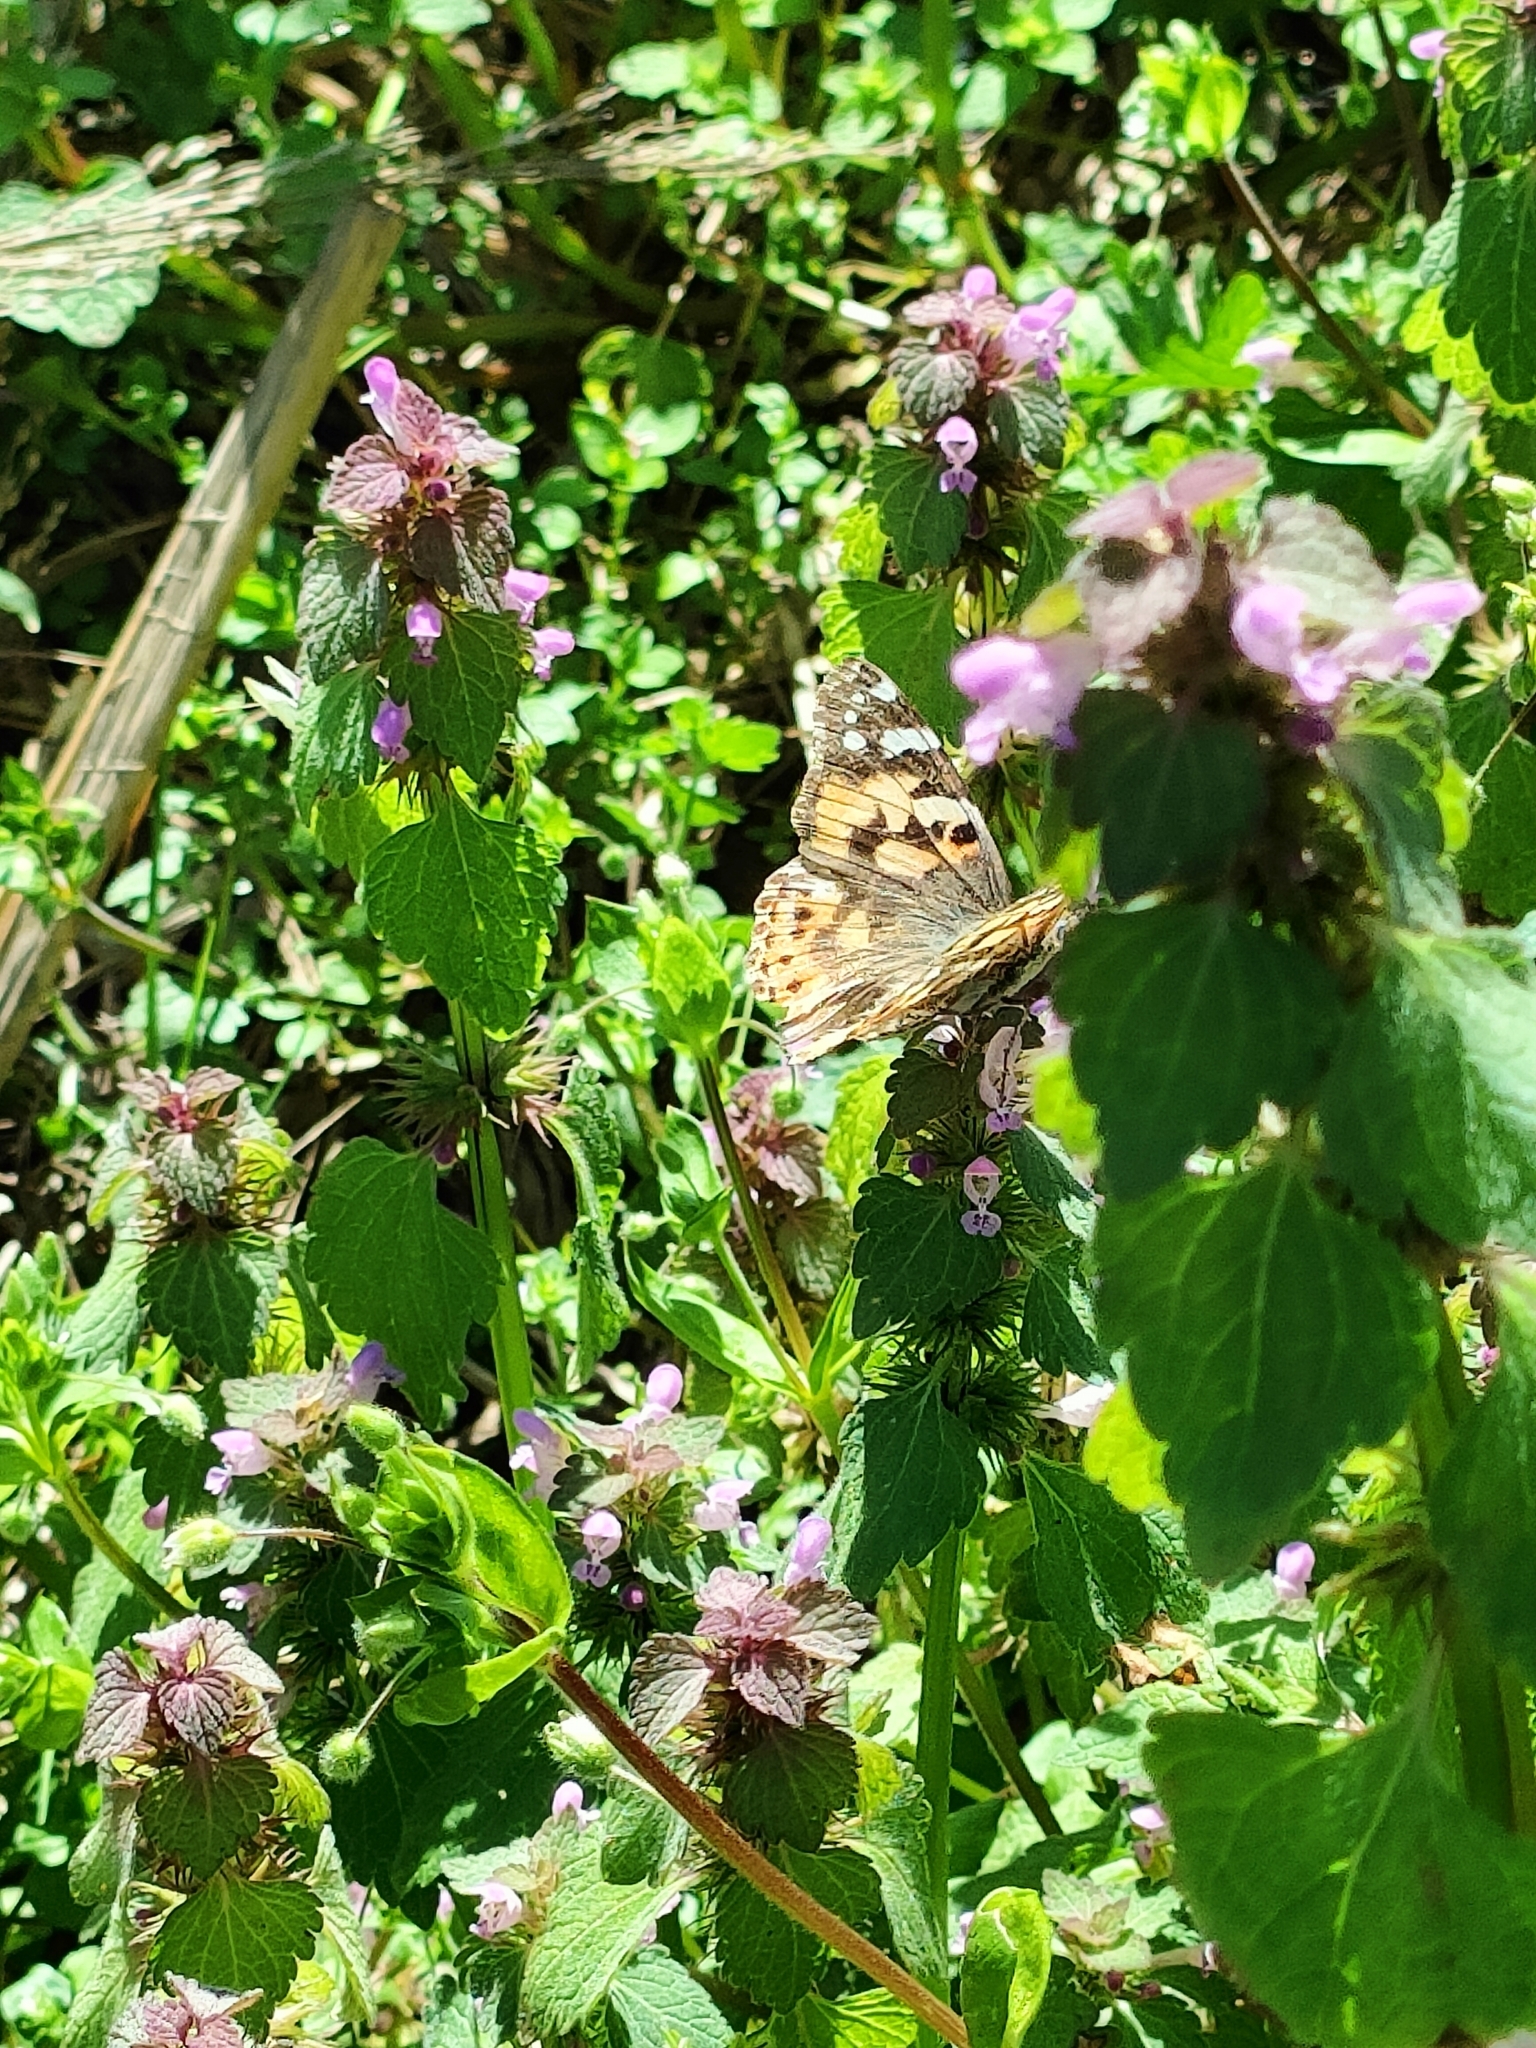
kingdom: Animalia
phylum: Arthropoda
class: Insecta
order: Lepidoptera
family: Nymphalidae
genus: Vanessa
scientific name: Vanessa cardui
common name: Painted lady
